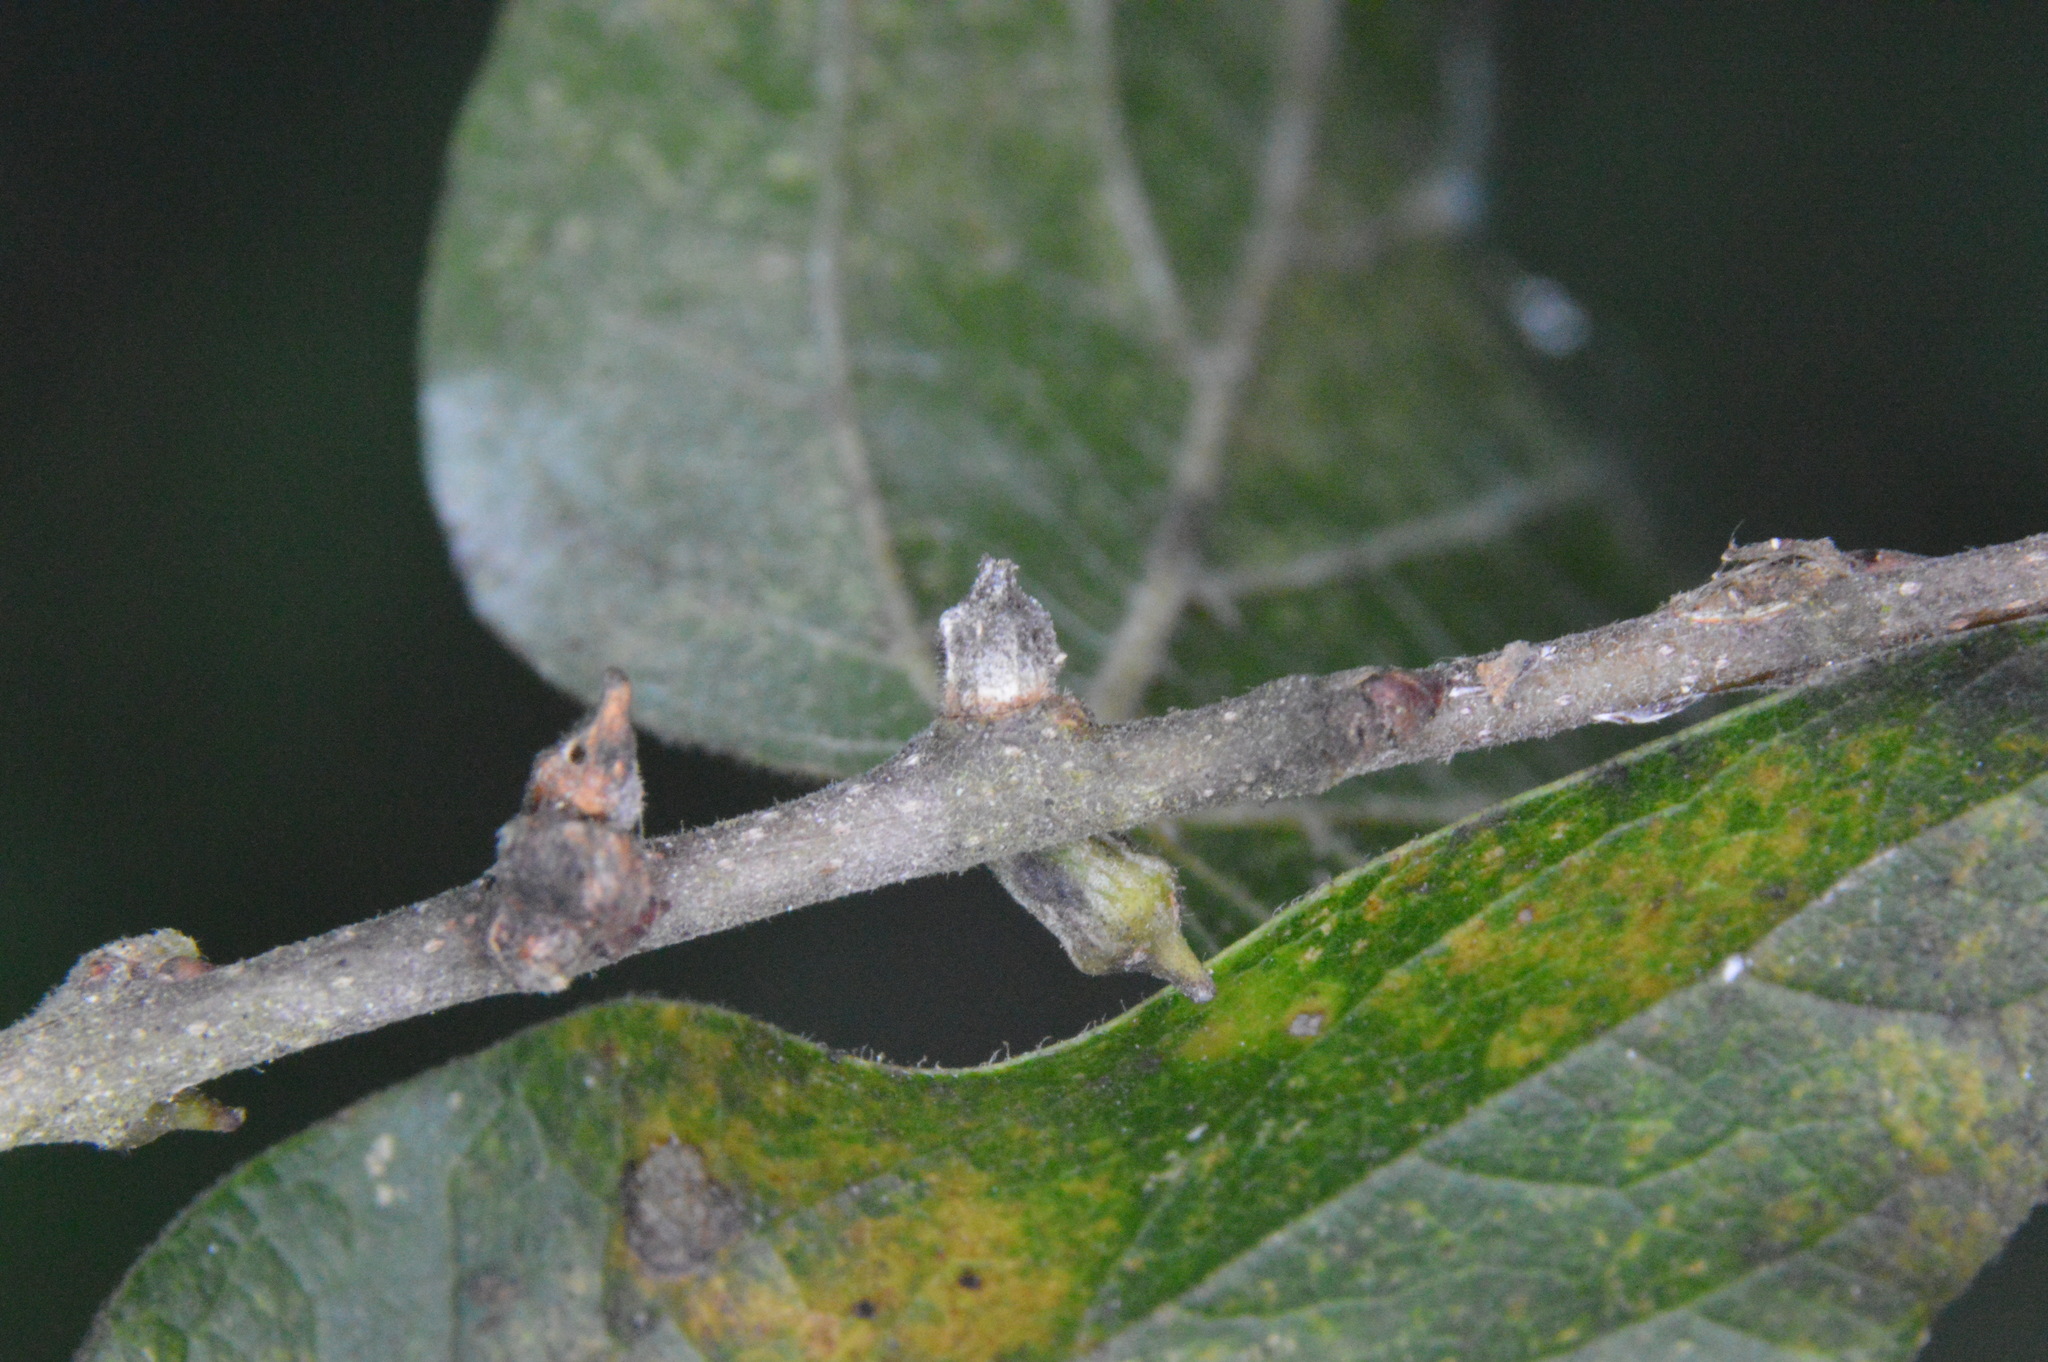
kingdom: Animalia
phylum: Arthropoda
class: Insecta
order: Diptera
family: Cecidomyiidae
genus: Celticecis
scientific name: Celticecis ramicola
